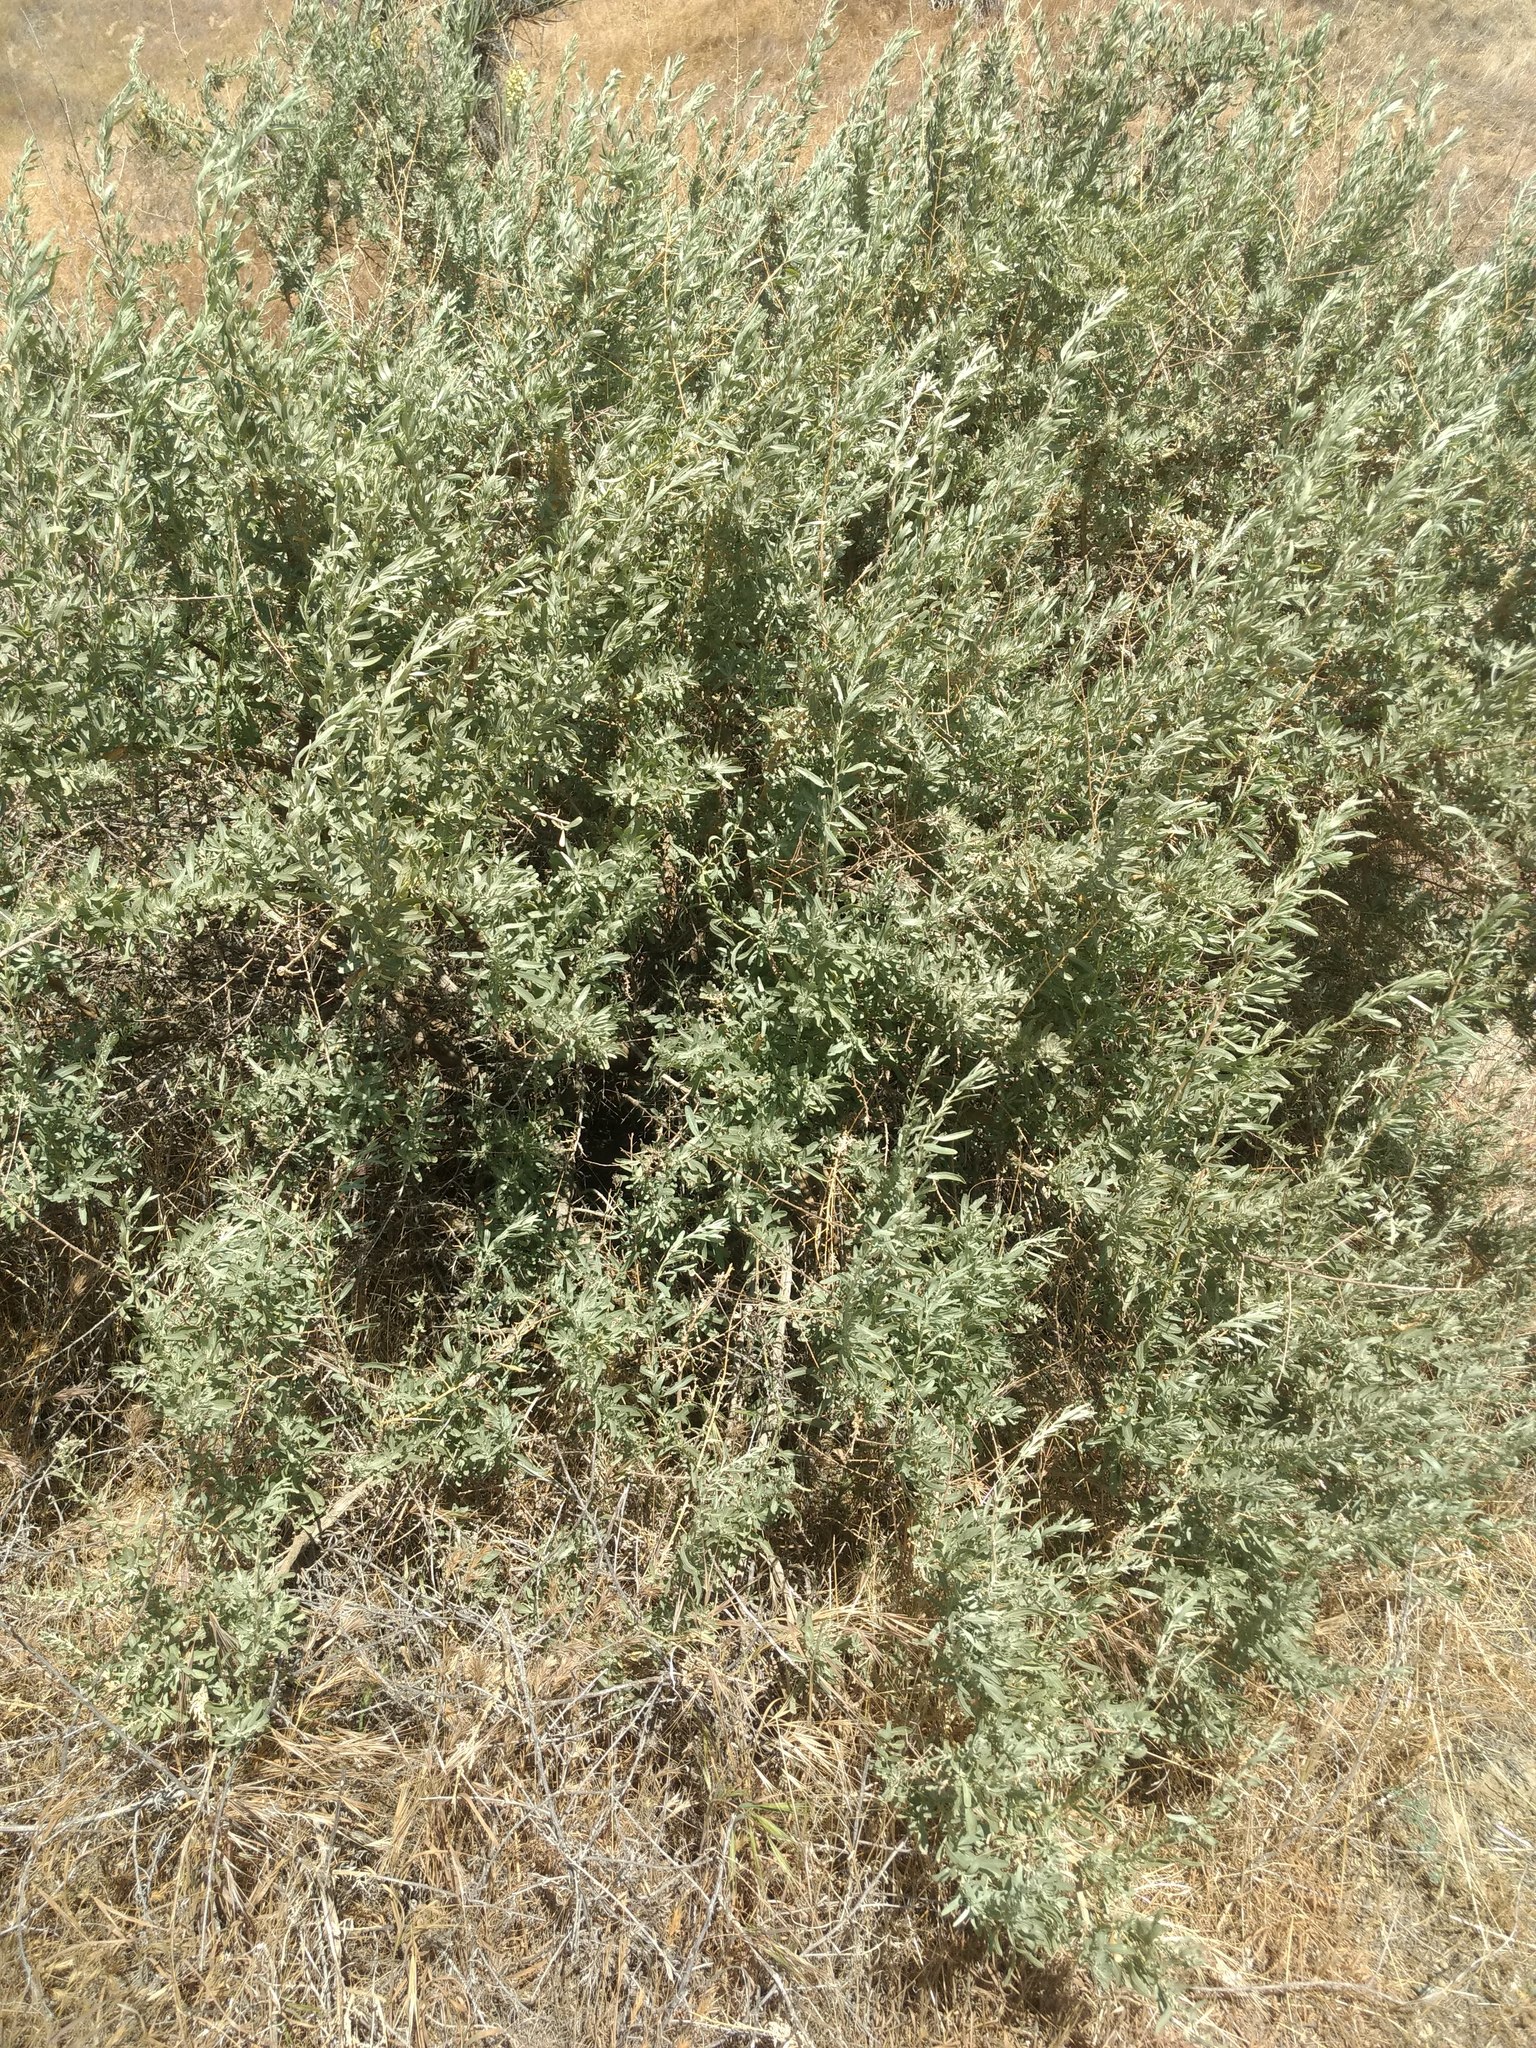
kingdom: Plantae
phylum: Tracheophyta
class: Magnoliopsida
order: Caryophyllales
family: Amaranthaceae
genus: Atriplex
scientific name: Atriplex canescens
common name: Four-wing saltbush
